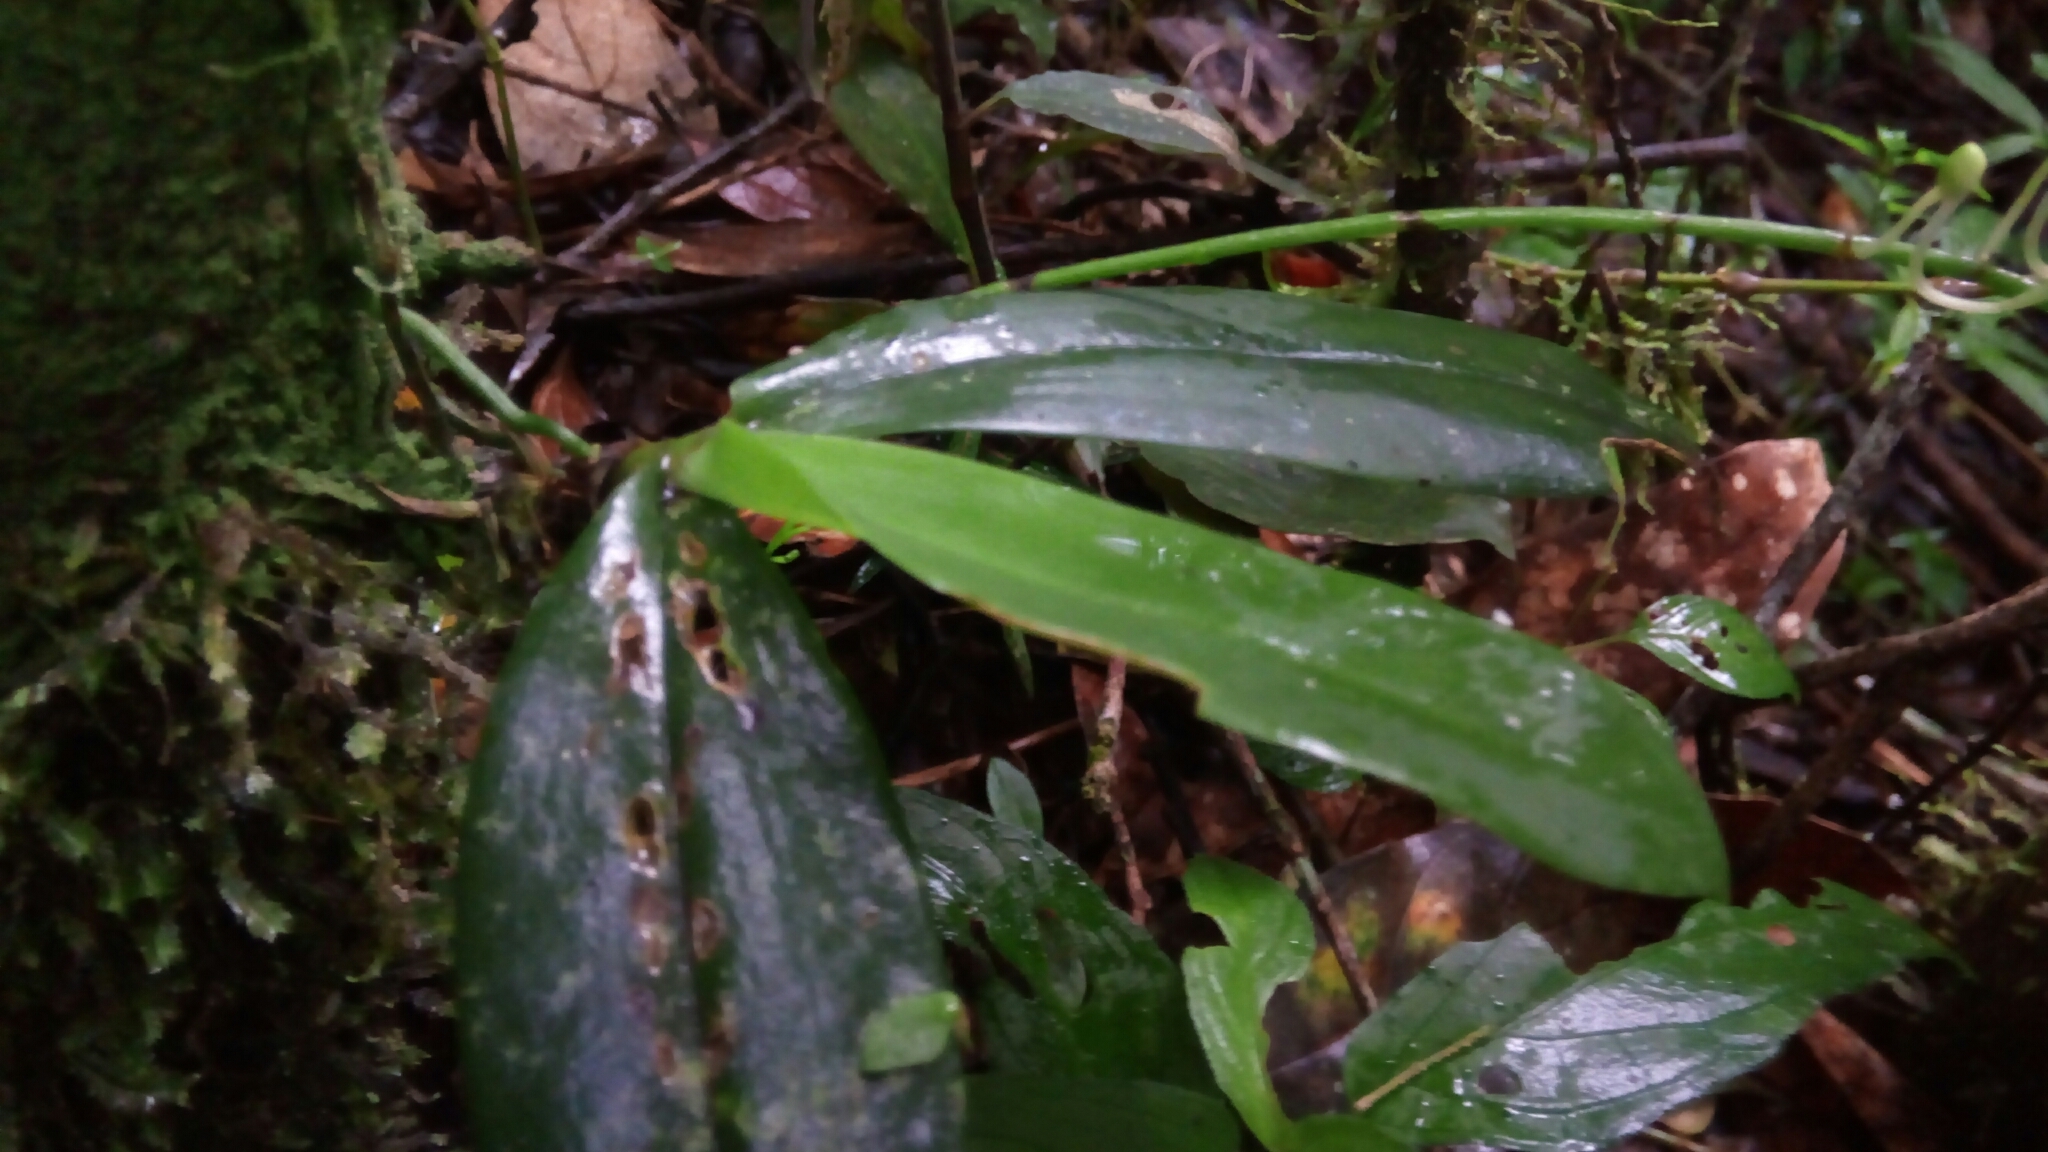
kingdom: Plantae
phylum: Tracheophyta
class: Liliopsida
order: Asparagales
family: Orchidaceae
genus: Aerangis
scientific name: Aerangis citrata
